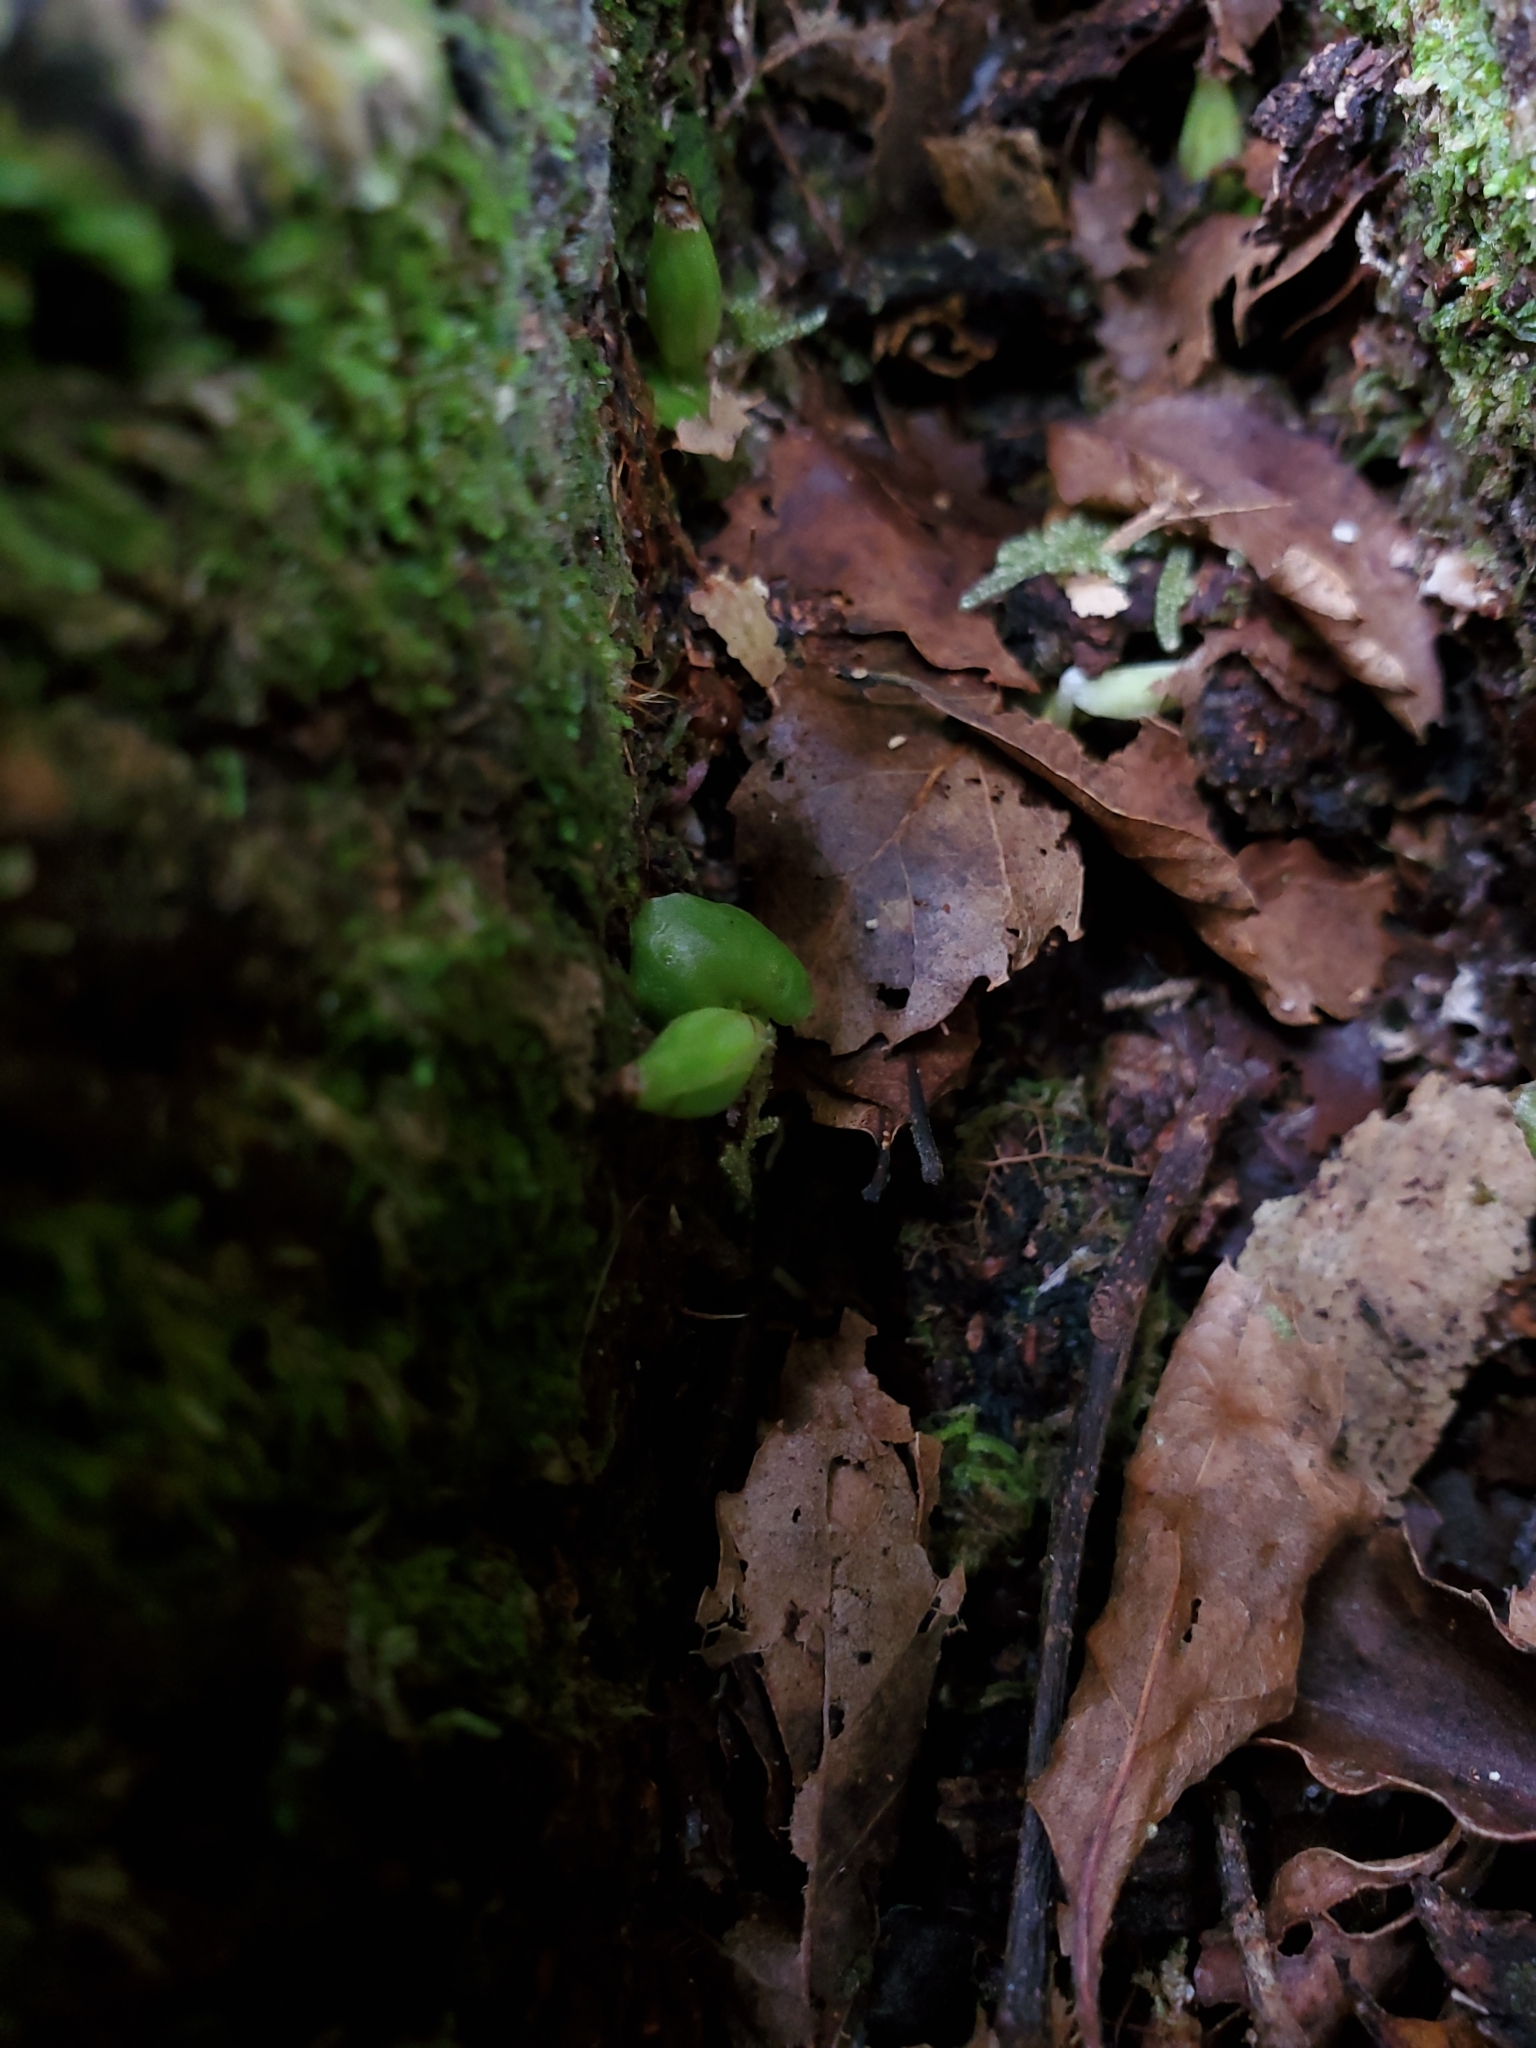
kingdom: Plantae
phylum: Tracheophyta
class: Liliopsida
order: Asparagales
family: Orchidaceae
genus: Corybas
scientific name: Corybas cheesemanii
